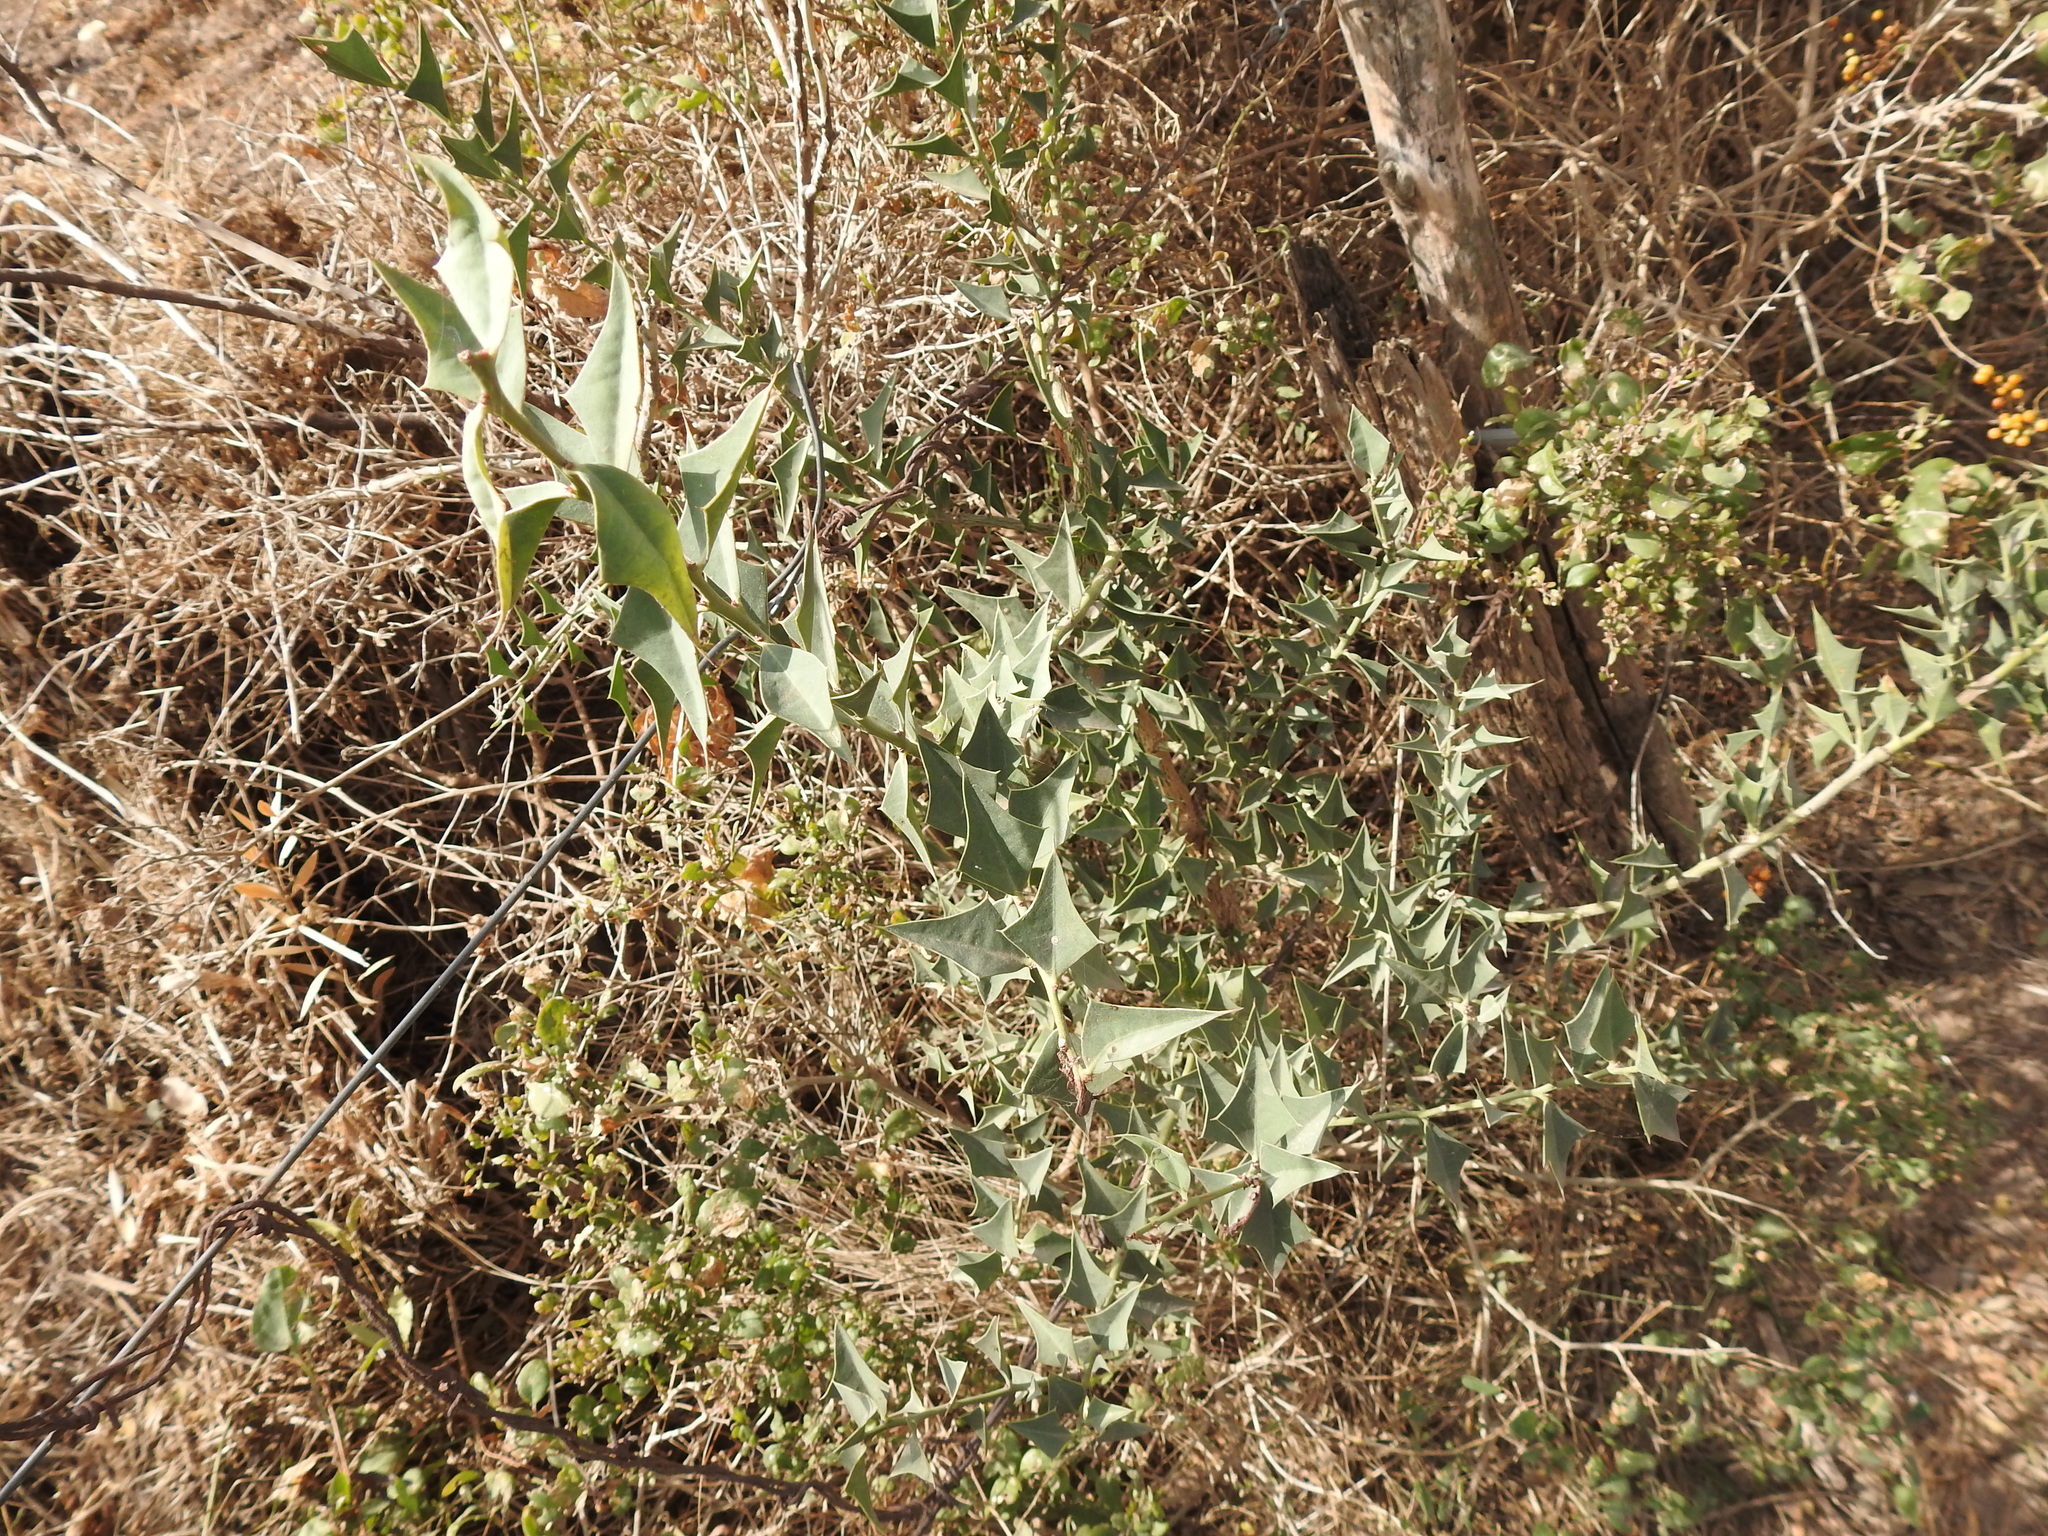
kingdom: Plantae
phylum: Tracheophyta
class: Magnoliopsida
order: Santalales
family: Cervantesiaceae
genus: Jodina
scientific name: Jodina rhombifolia
